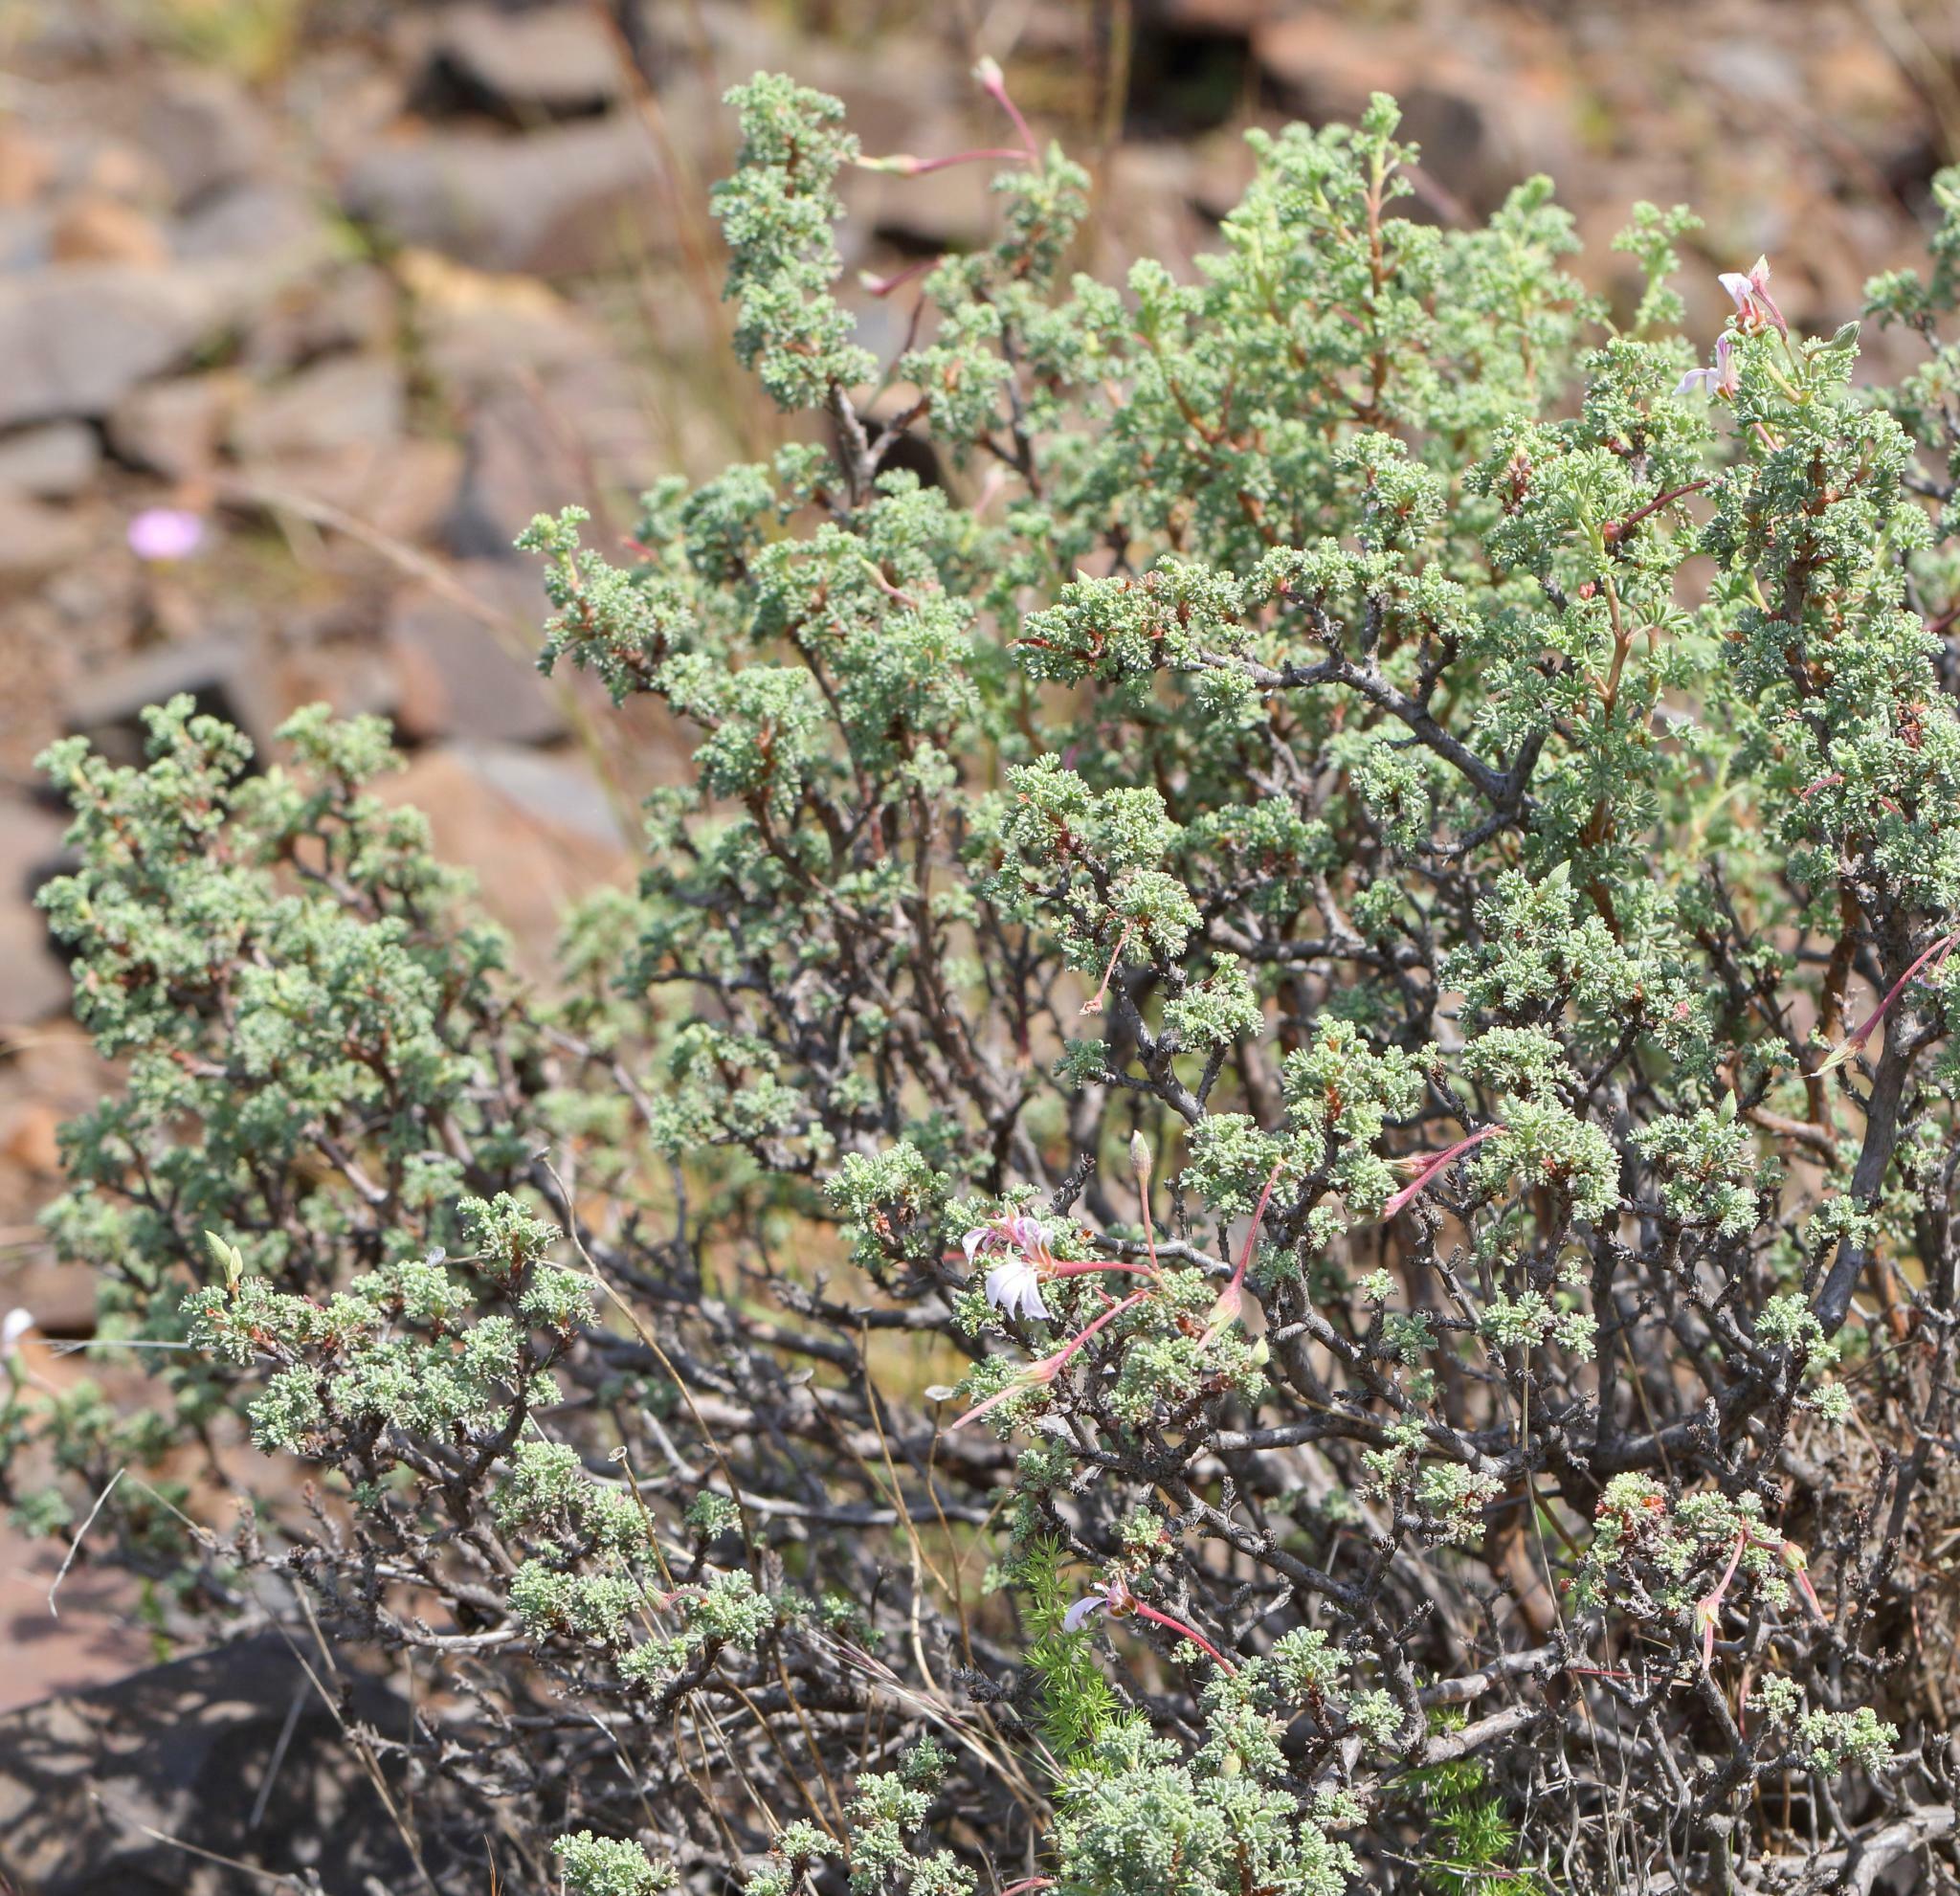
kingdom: Plantae
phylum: Tracheophyta
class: Magnoliopsida
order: Geraniales
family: Geraniaceae
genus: Pelargonium
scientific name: Pelargonium abrotanifolium
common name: Southernwood geranium
